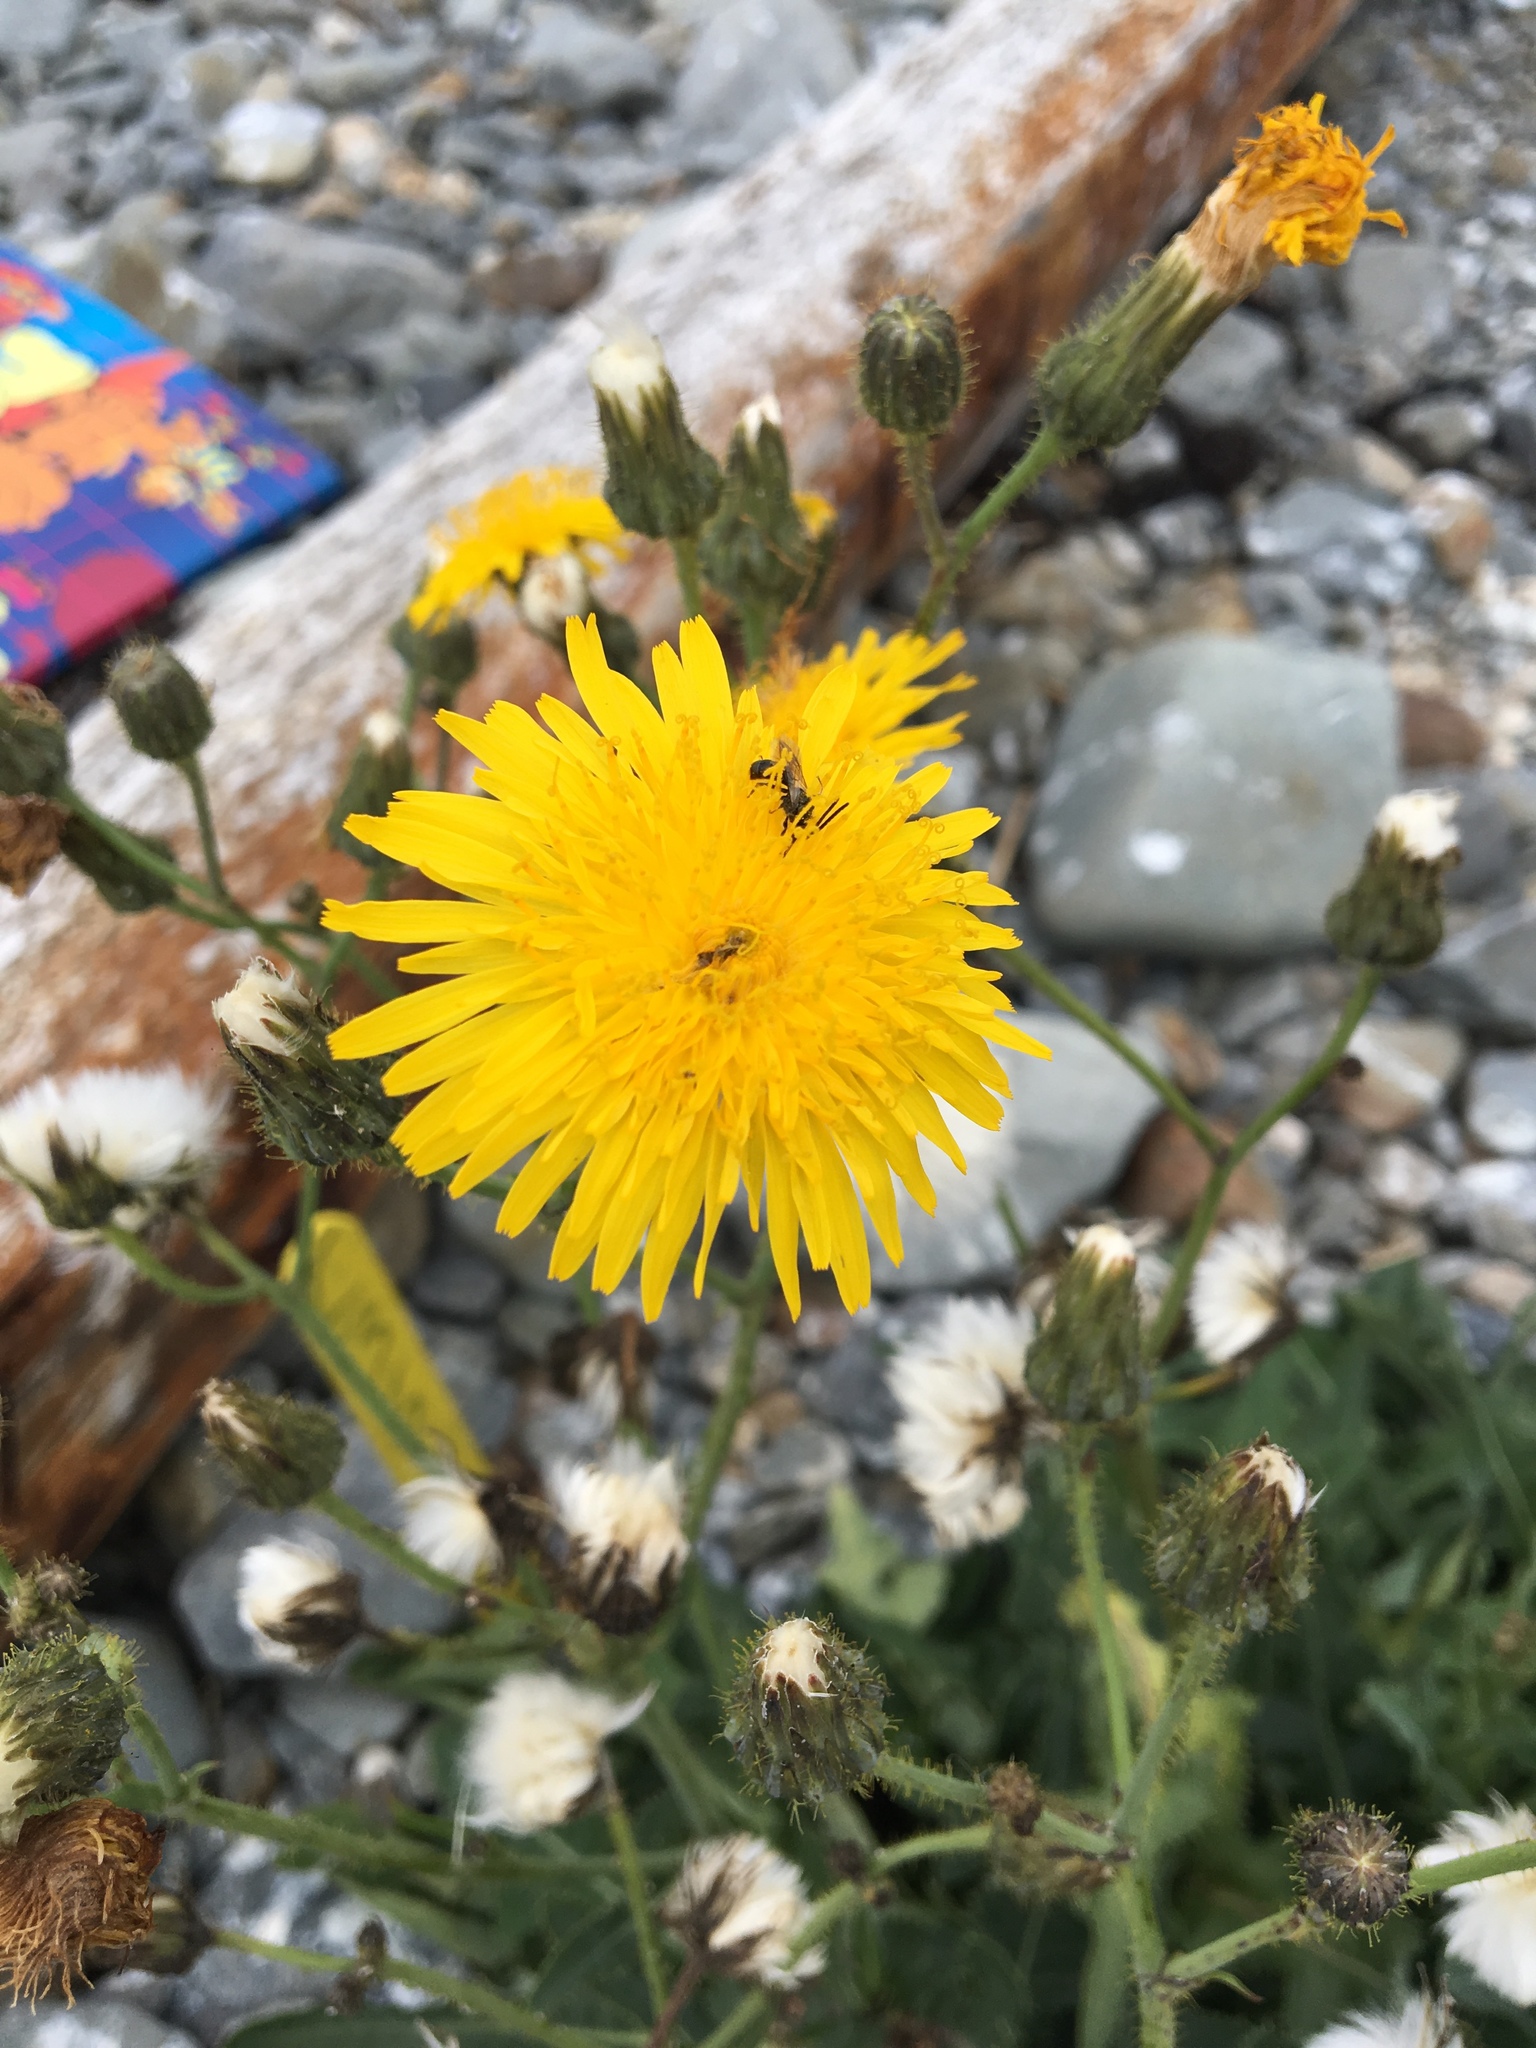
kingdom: Plantae
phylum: Tracheophyta
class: Magnoliopsida
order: Asterales
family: Asteraceae
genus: Sonchus
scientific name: Sonchus arvensis
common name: Perennial sow-thistle
